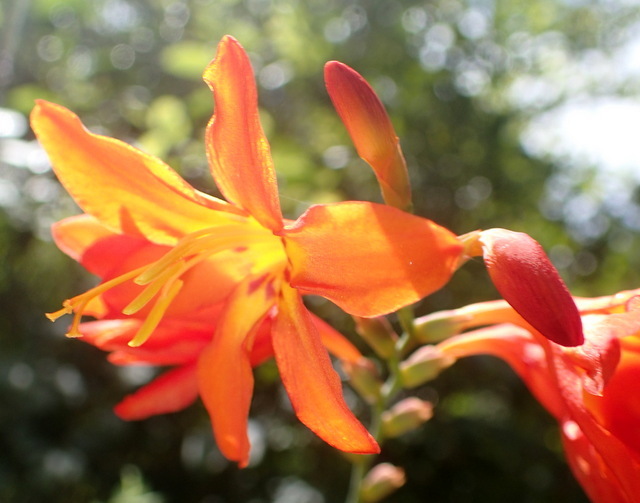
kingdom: Plantae
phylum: Tracheophyta
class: Liliopsida
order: Asparagales
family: Iridaceae
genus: Crocosmia
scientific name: Crocosmia crocosmiiflora
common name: Montbretia
